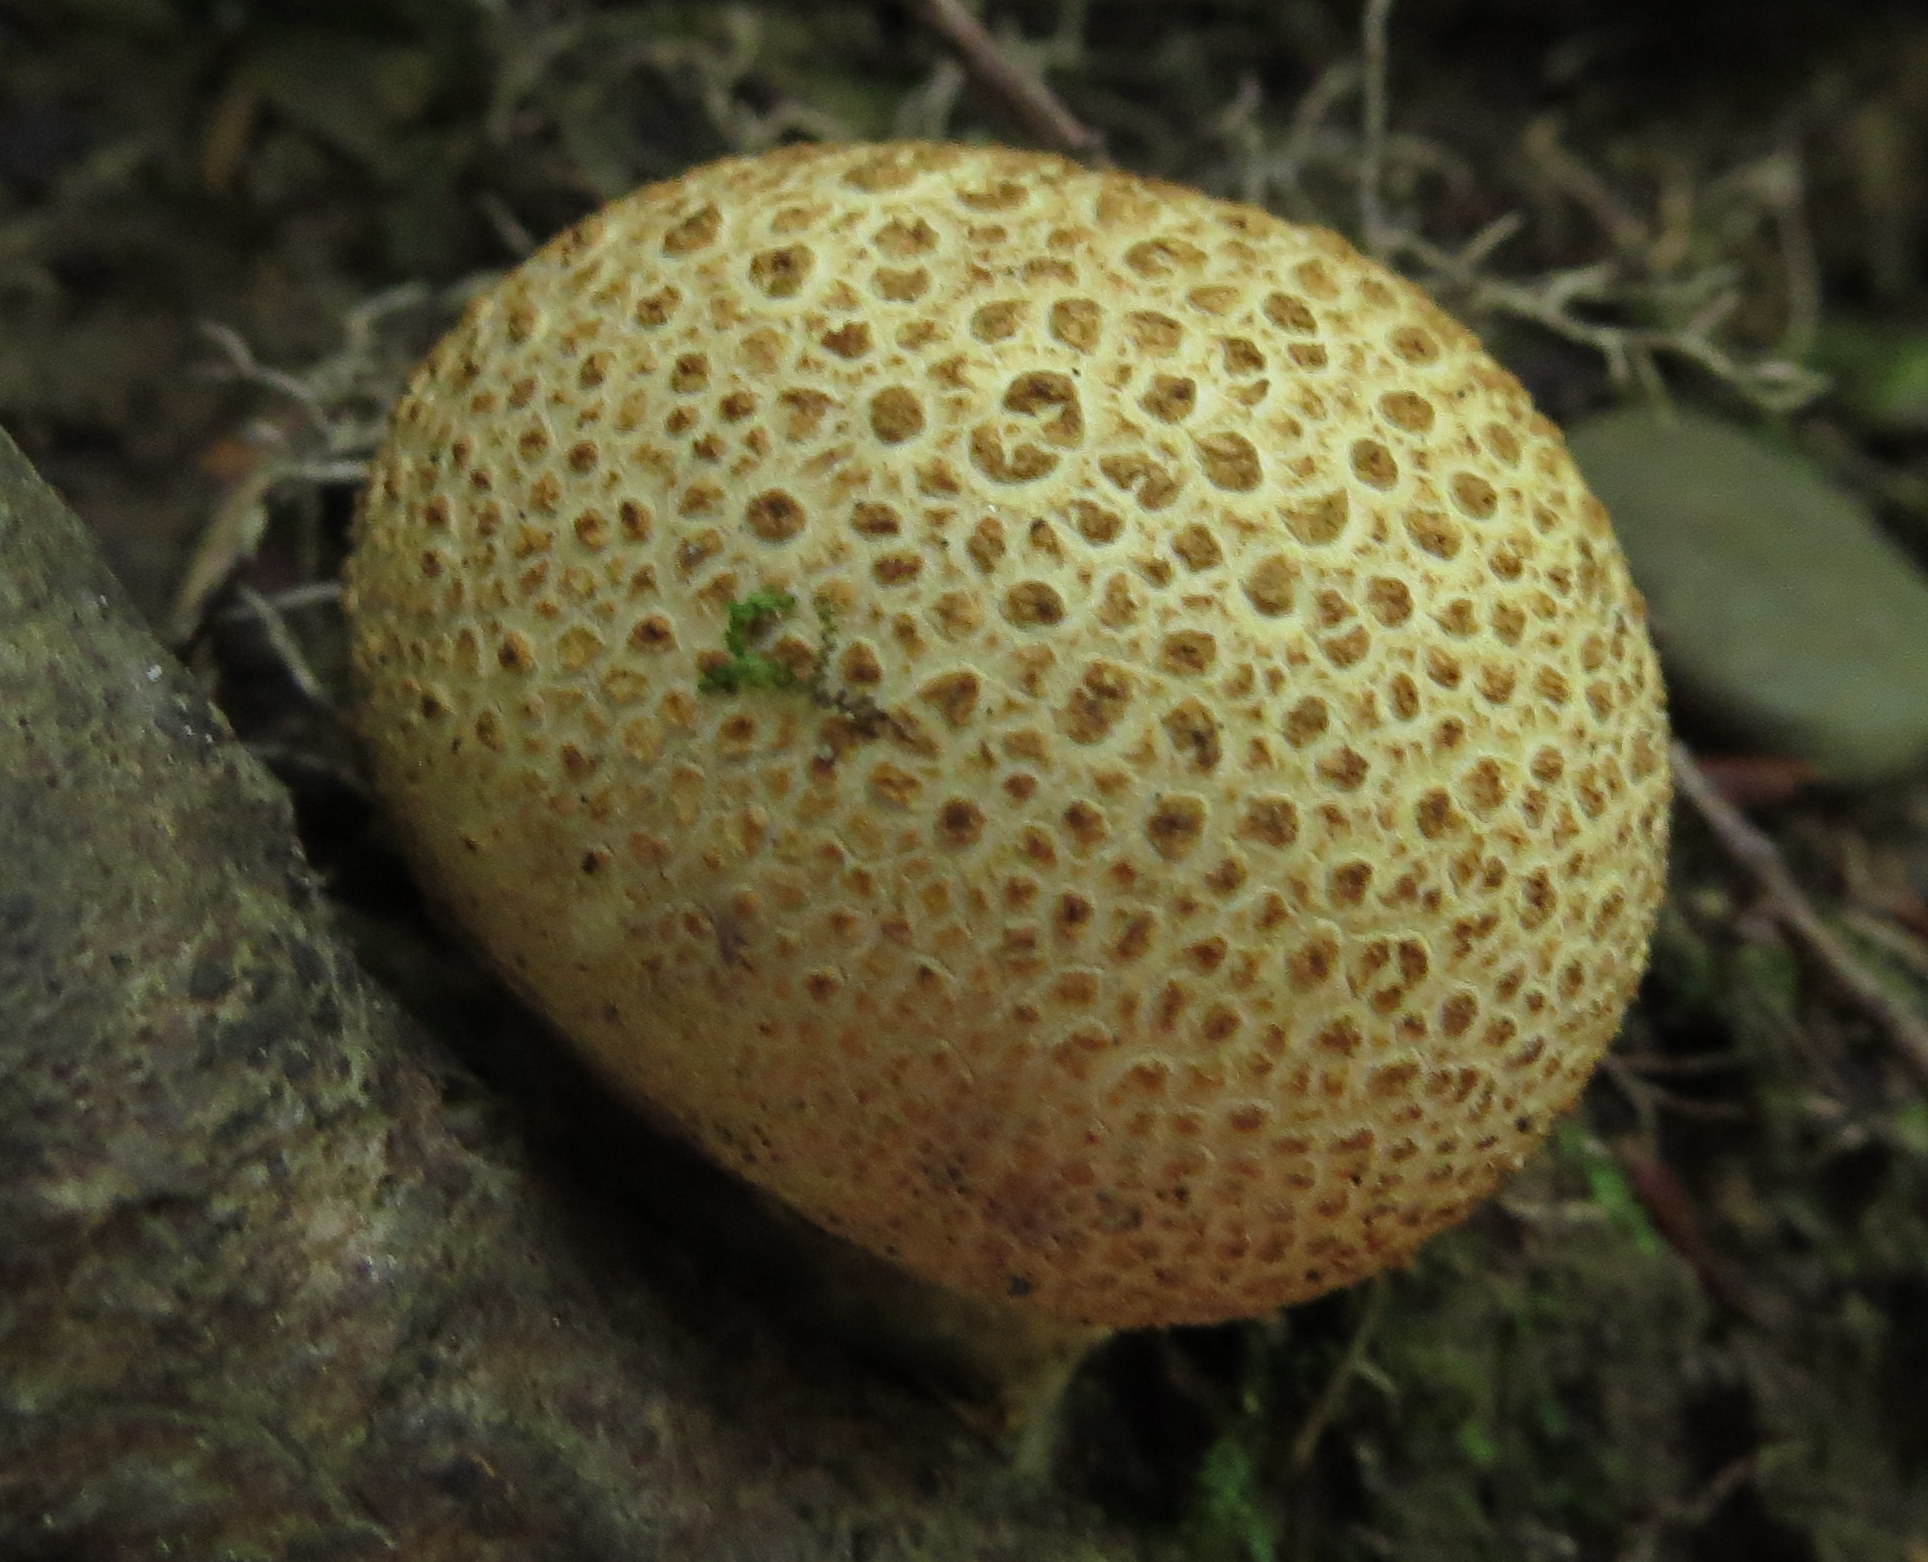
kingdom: Fungi
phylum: Basidiomycota
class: Agaricomycetes
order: Boletales
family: Sclerodermataceae
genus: Scleroderma
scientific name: Scleroderma citrinum
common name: Common earthball
